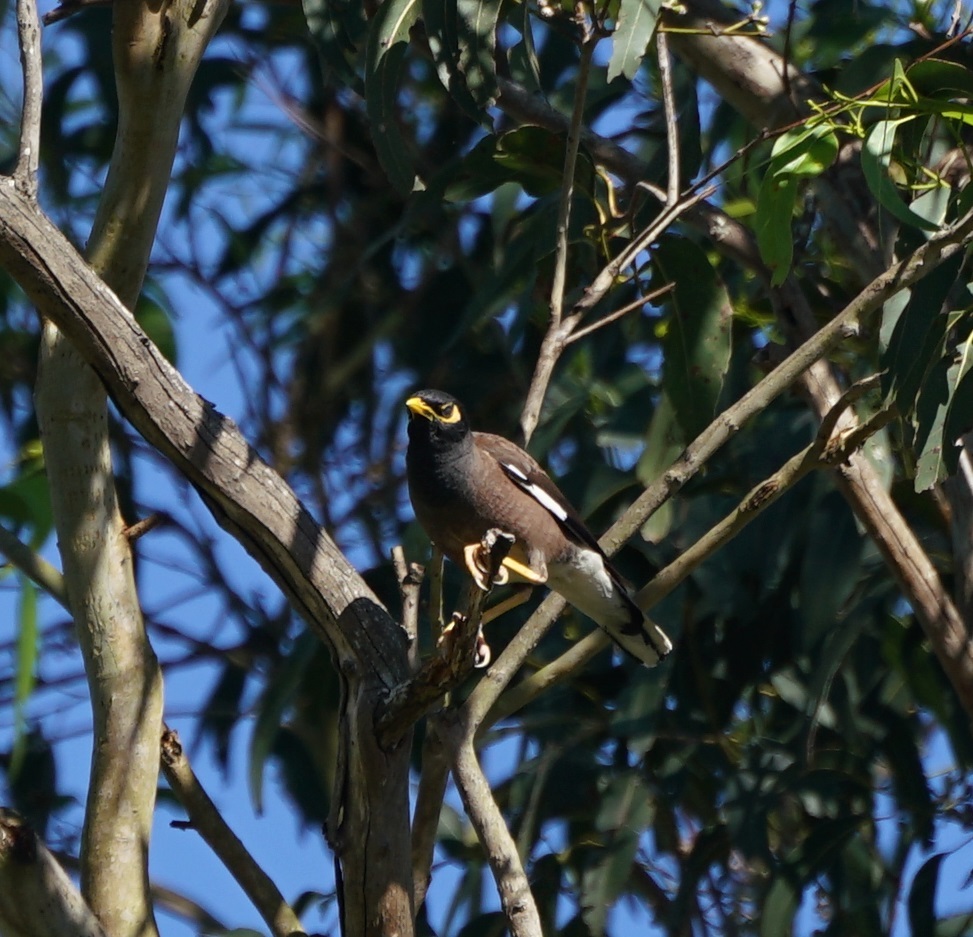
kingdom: Animalia
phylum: Chordata
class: Aves
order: Passeriformes
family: Sturnidae
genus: Acridotheres
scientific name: Acridotheres tristis
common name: Common myna
